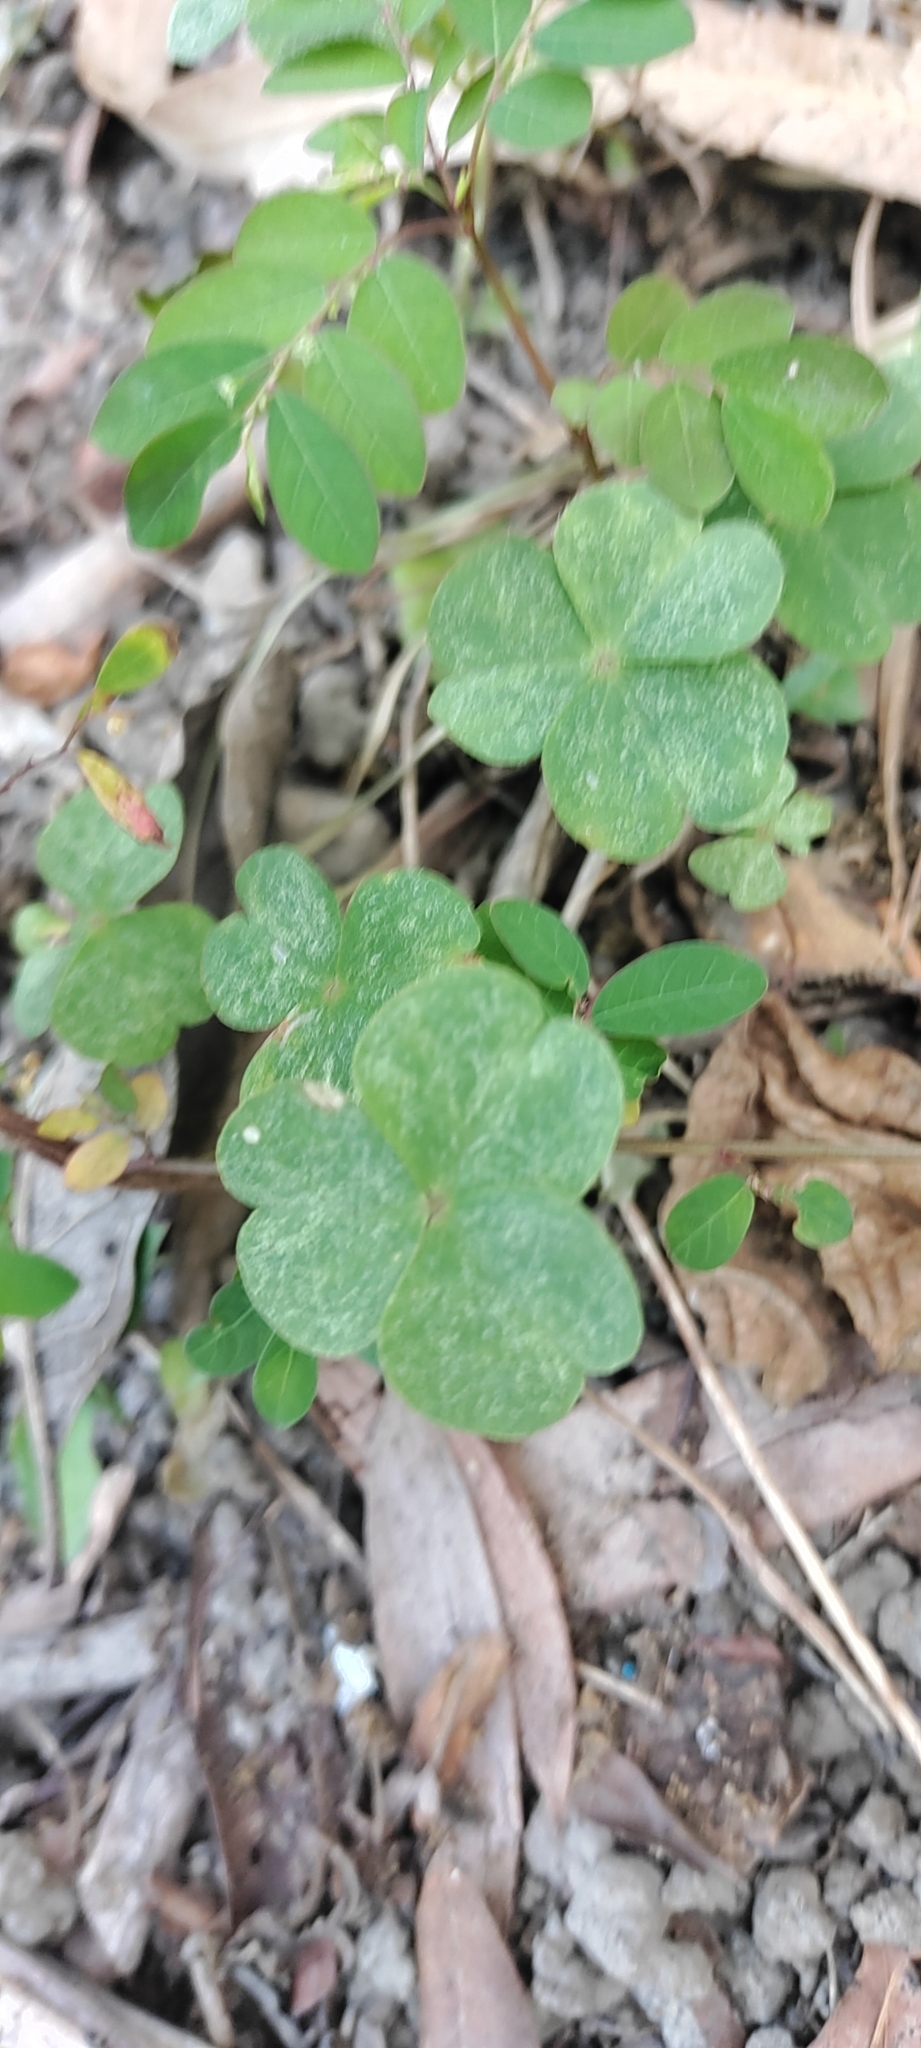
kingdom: Plantae
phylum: Tracheophyta
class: Magnoliopsida
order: Oxalidales
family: Oxalidaceae
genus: Oxalis
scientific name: Oxalis corniculata
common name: Procumbent yellow-sorrel
